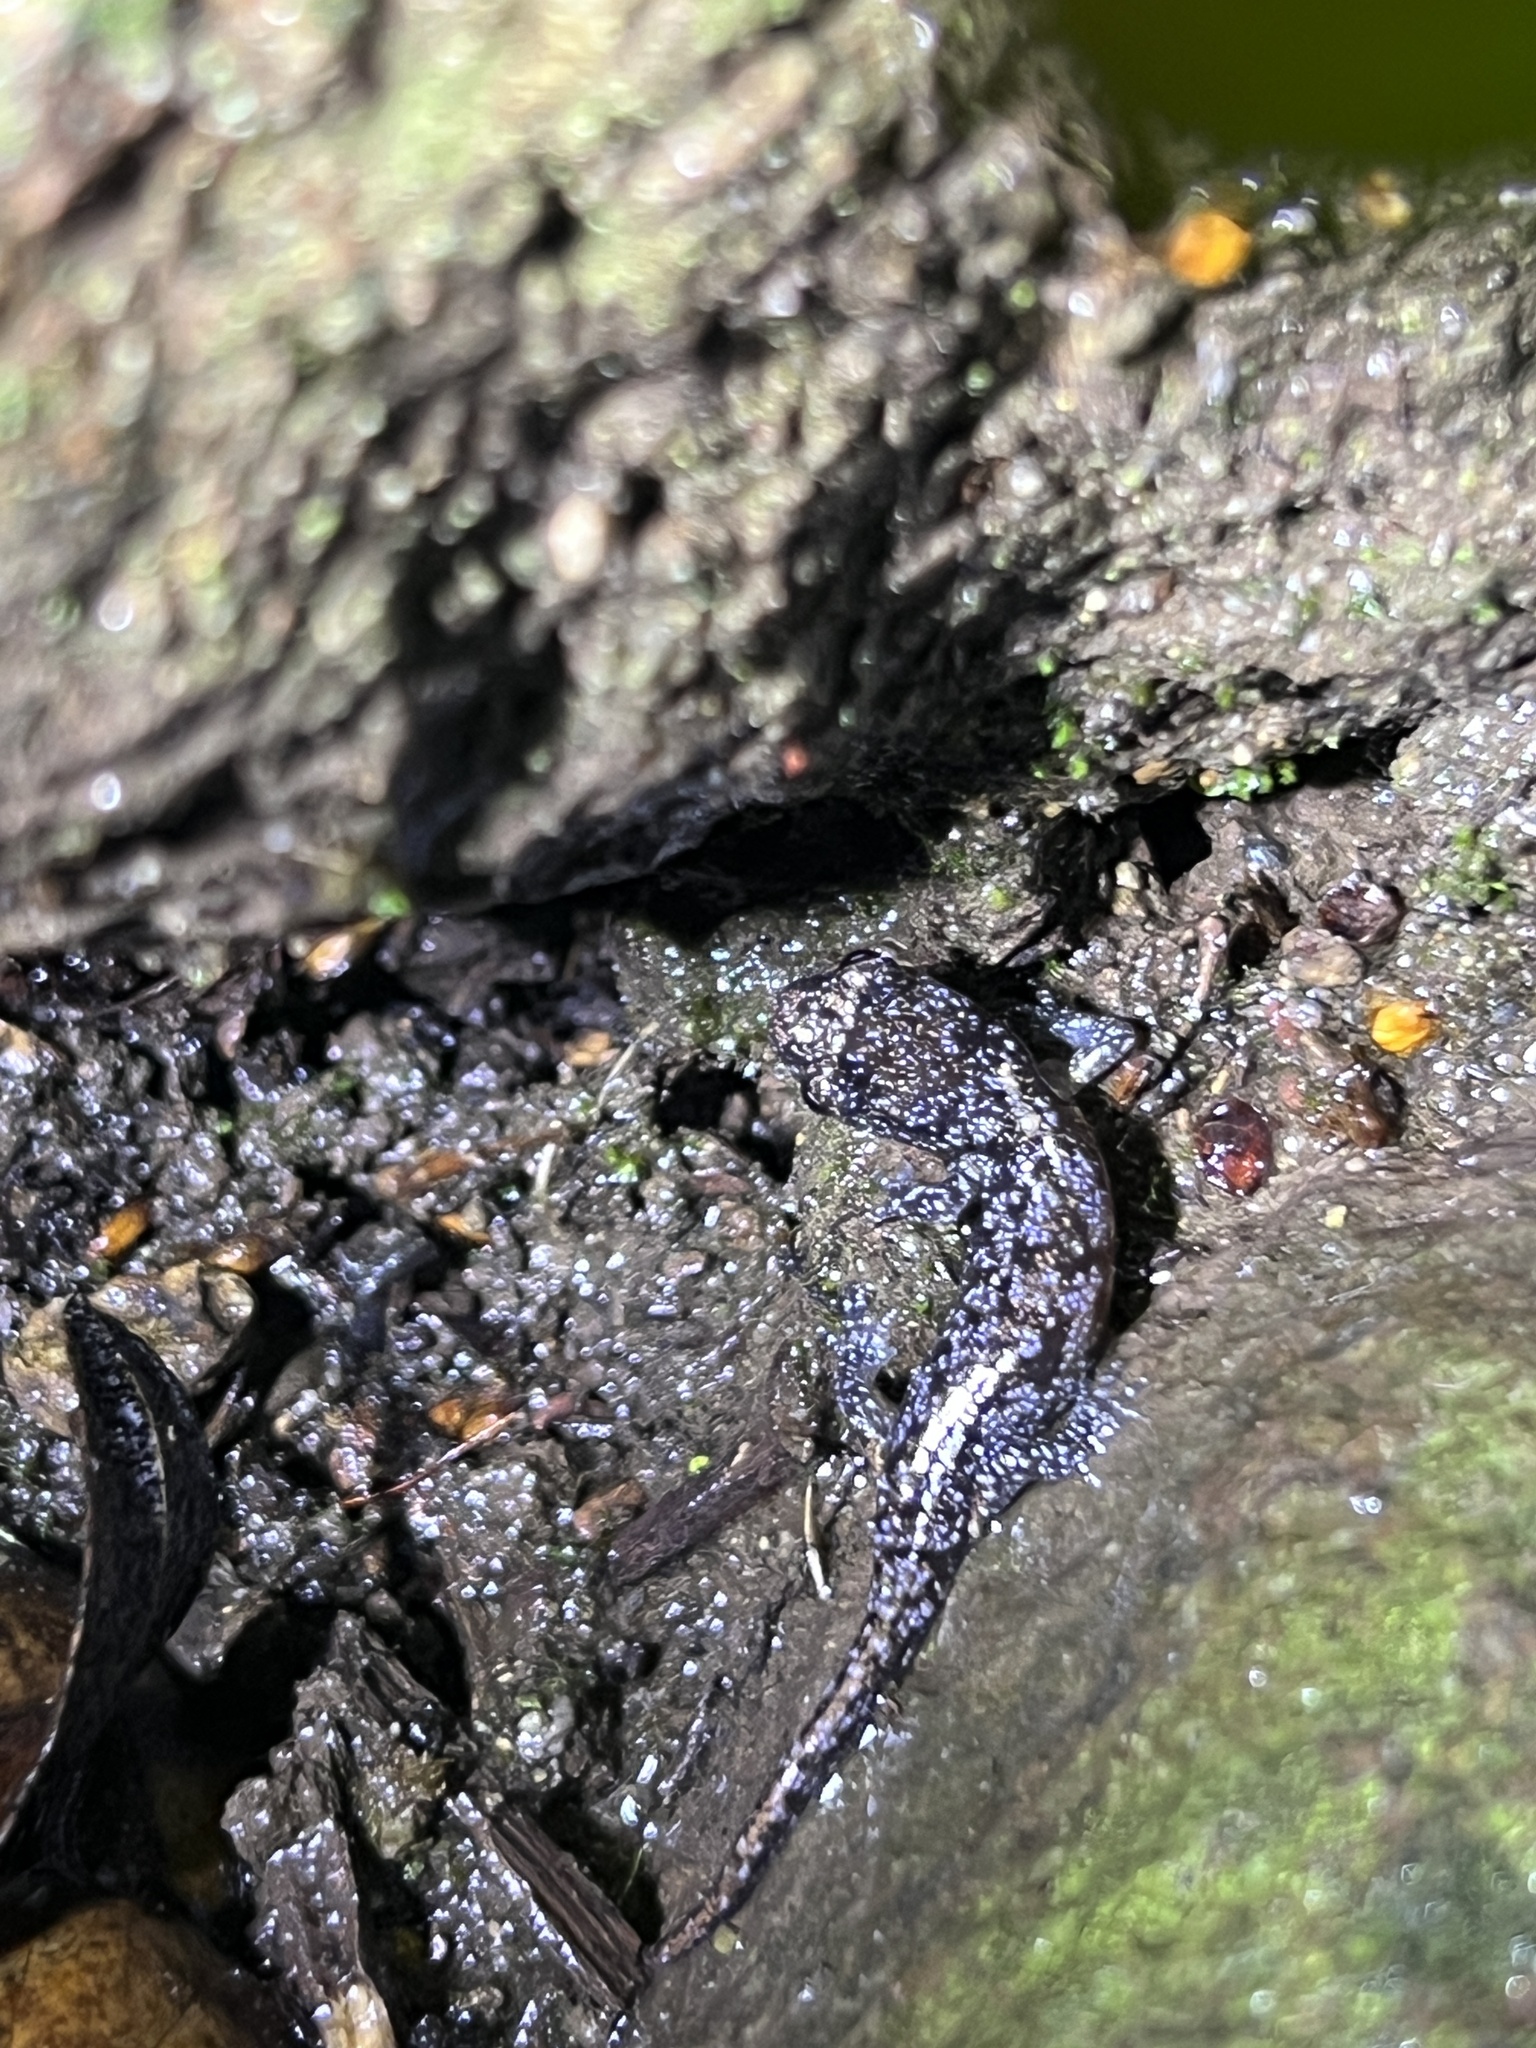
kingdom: Animalia
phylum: Chordata
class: Amphibia
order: Caudata
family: Plethodontidae
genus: Aneides
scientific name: Aneides lugubris
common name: Arboreal salamander
